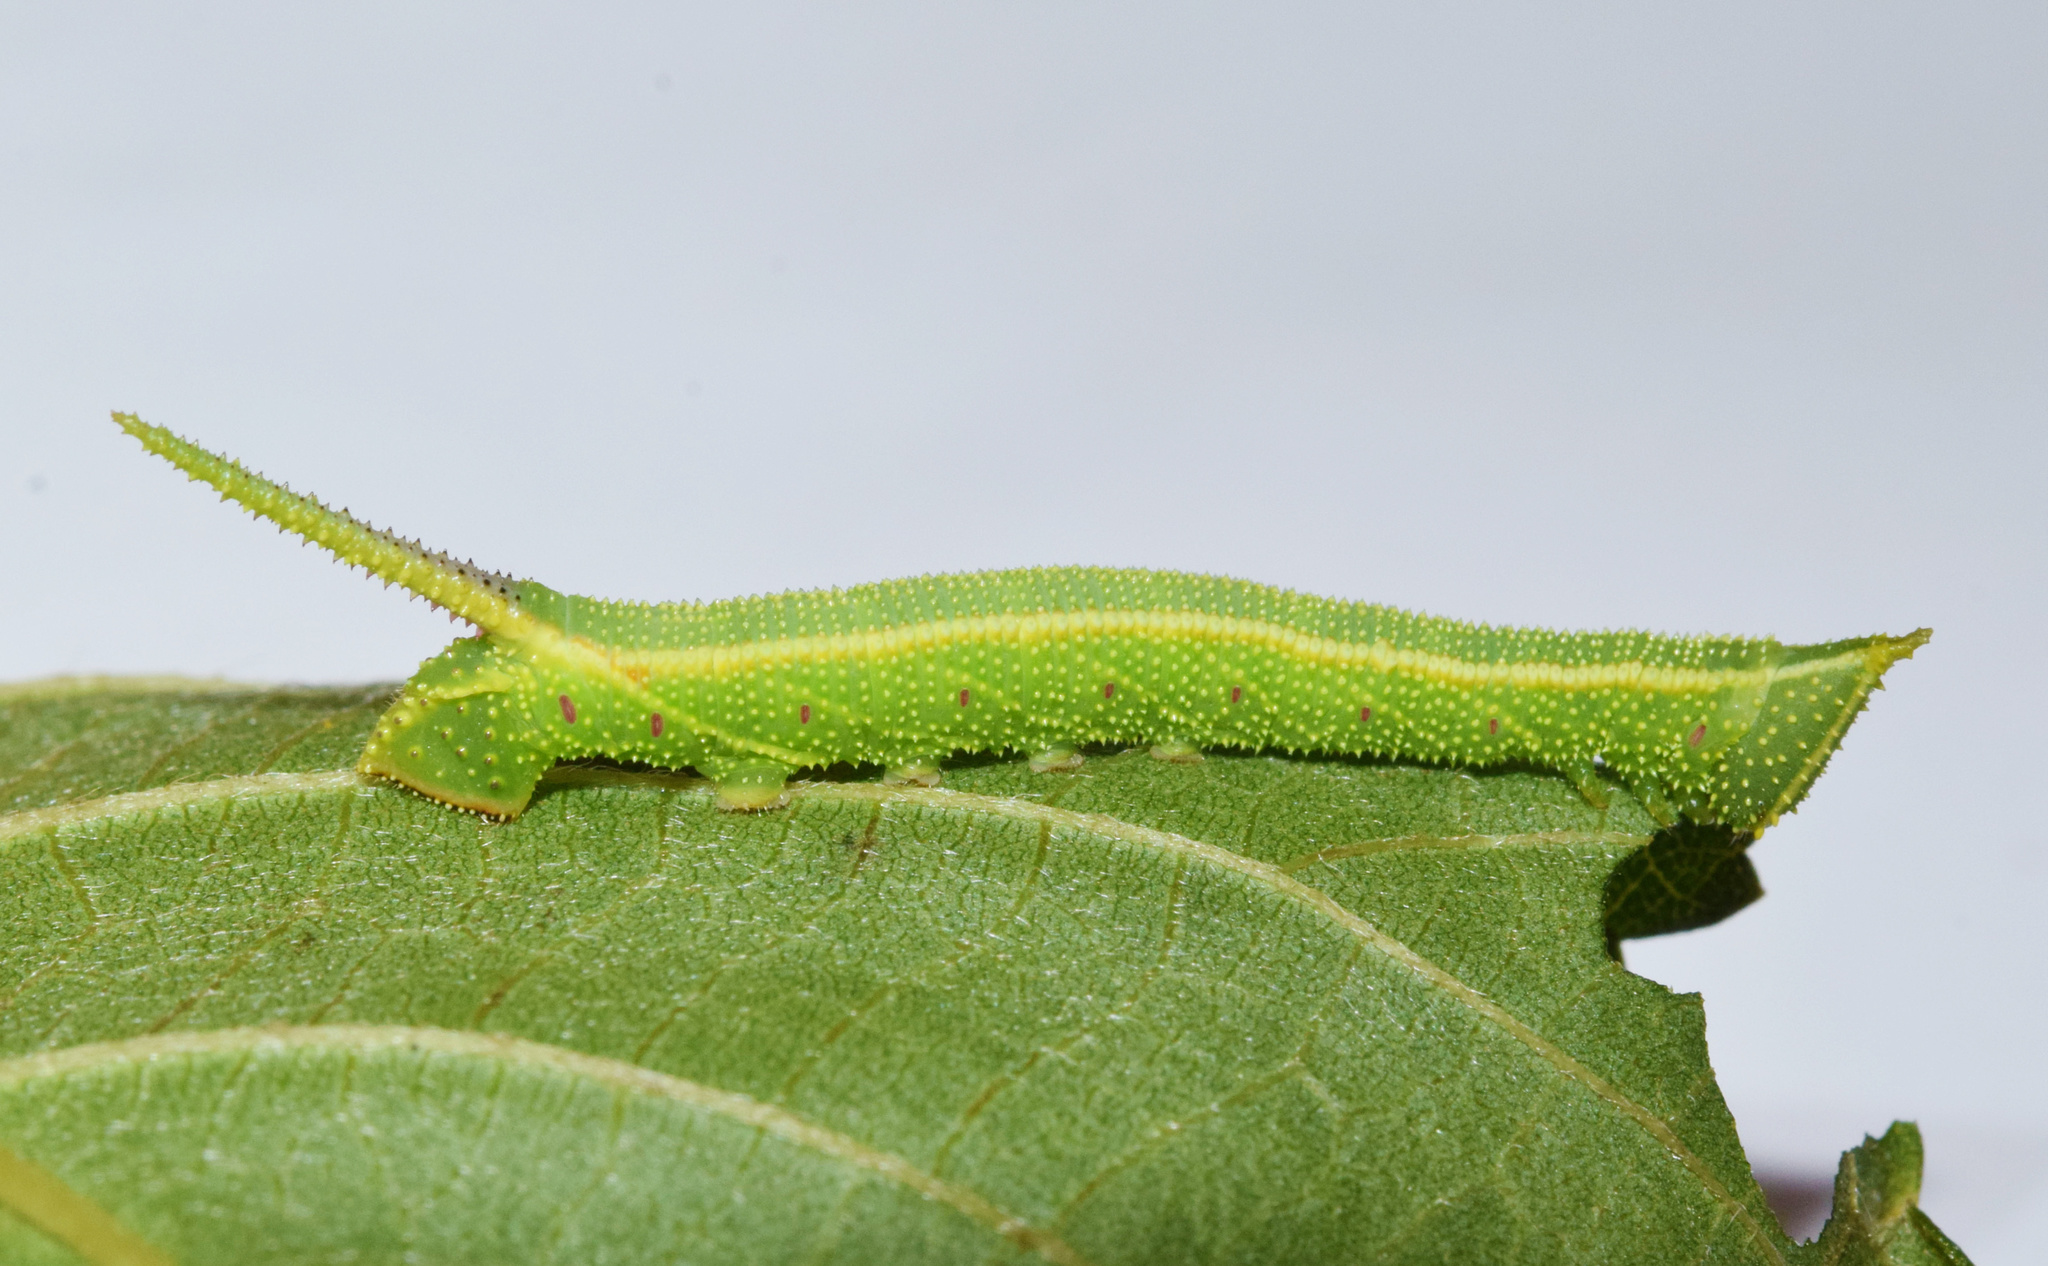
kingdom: Animalia
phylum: Arthropoda
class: Insecta
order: Lepidoptera
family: Sphingidae
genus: Pseudoclanis
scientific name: Pseudoclanis postica
